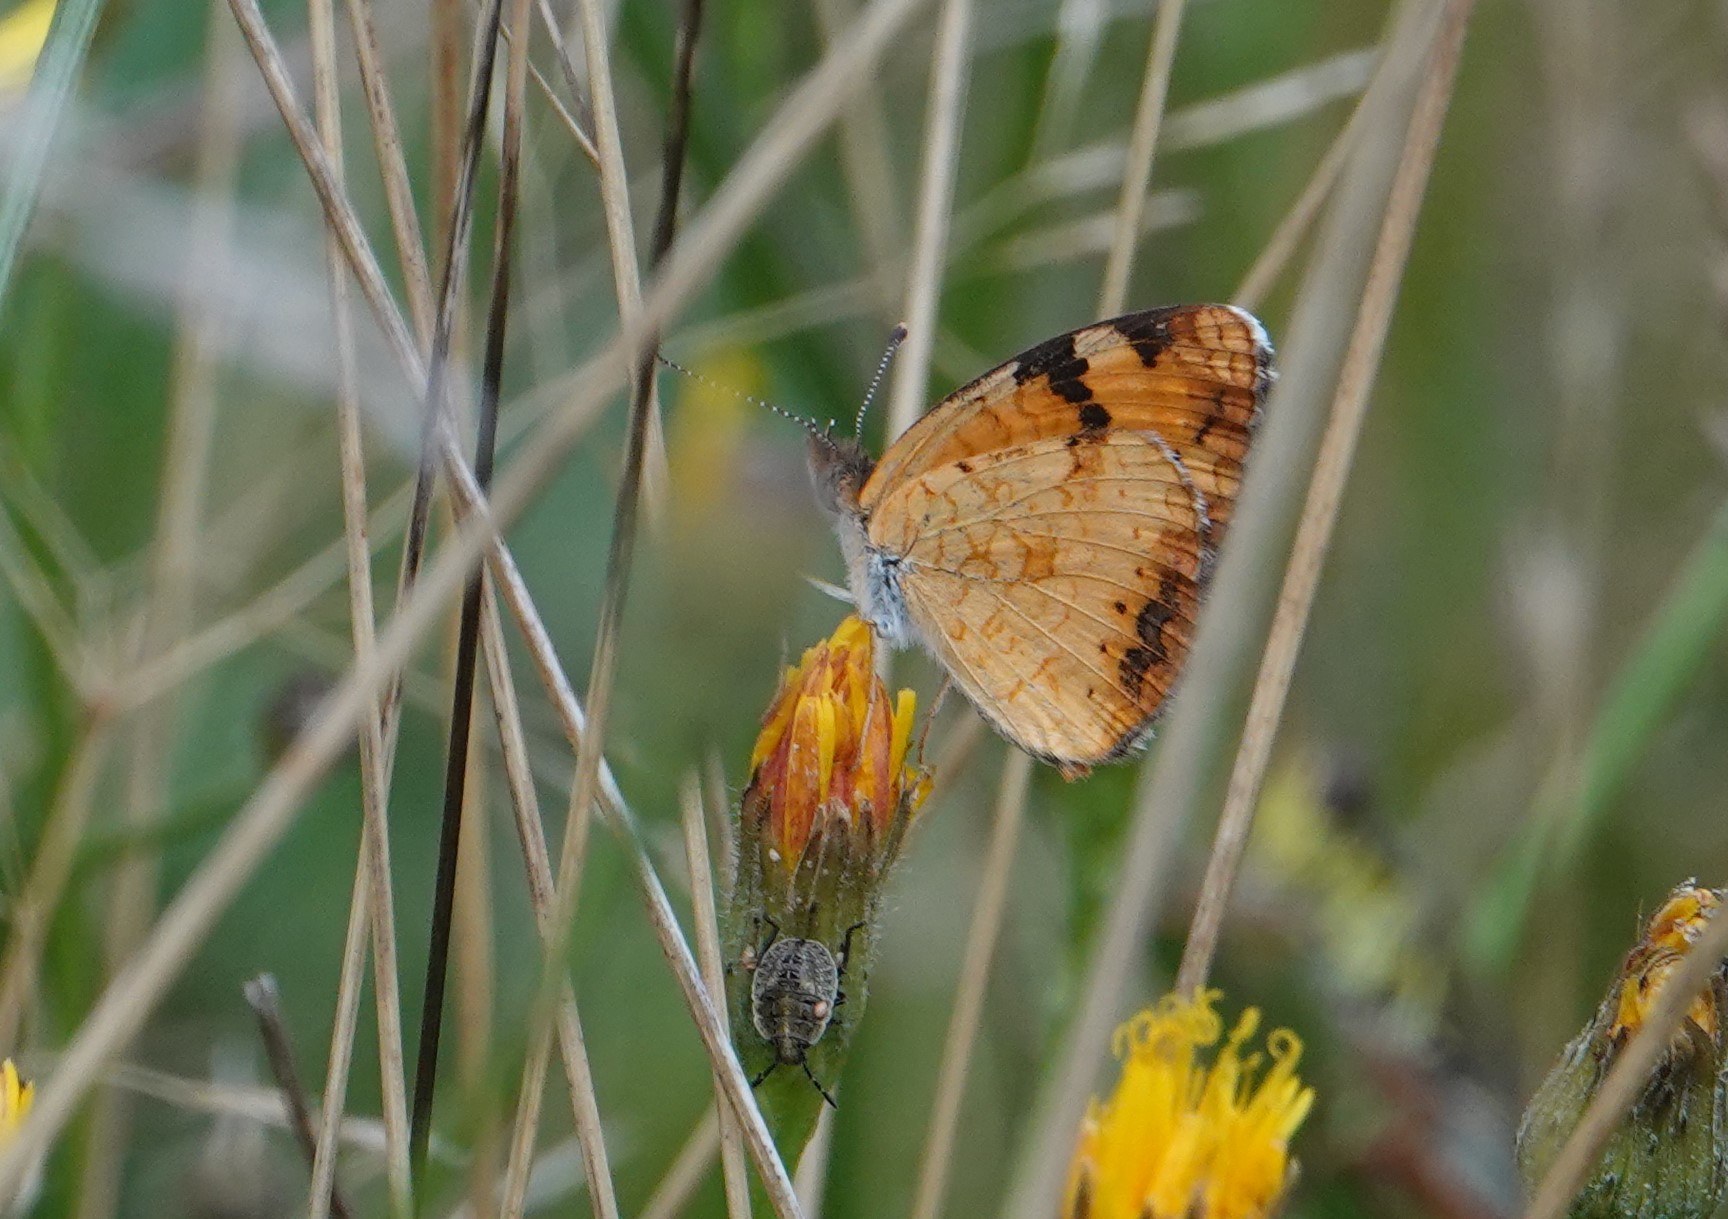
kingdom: Animalia
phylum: Arthropoda
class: Insecta
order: Lepidoptera
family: Nymphalidae
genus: Phyciodes
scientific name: Phyciodes tharos
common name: Pearl crescent
